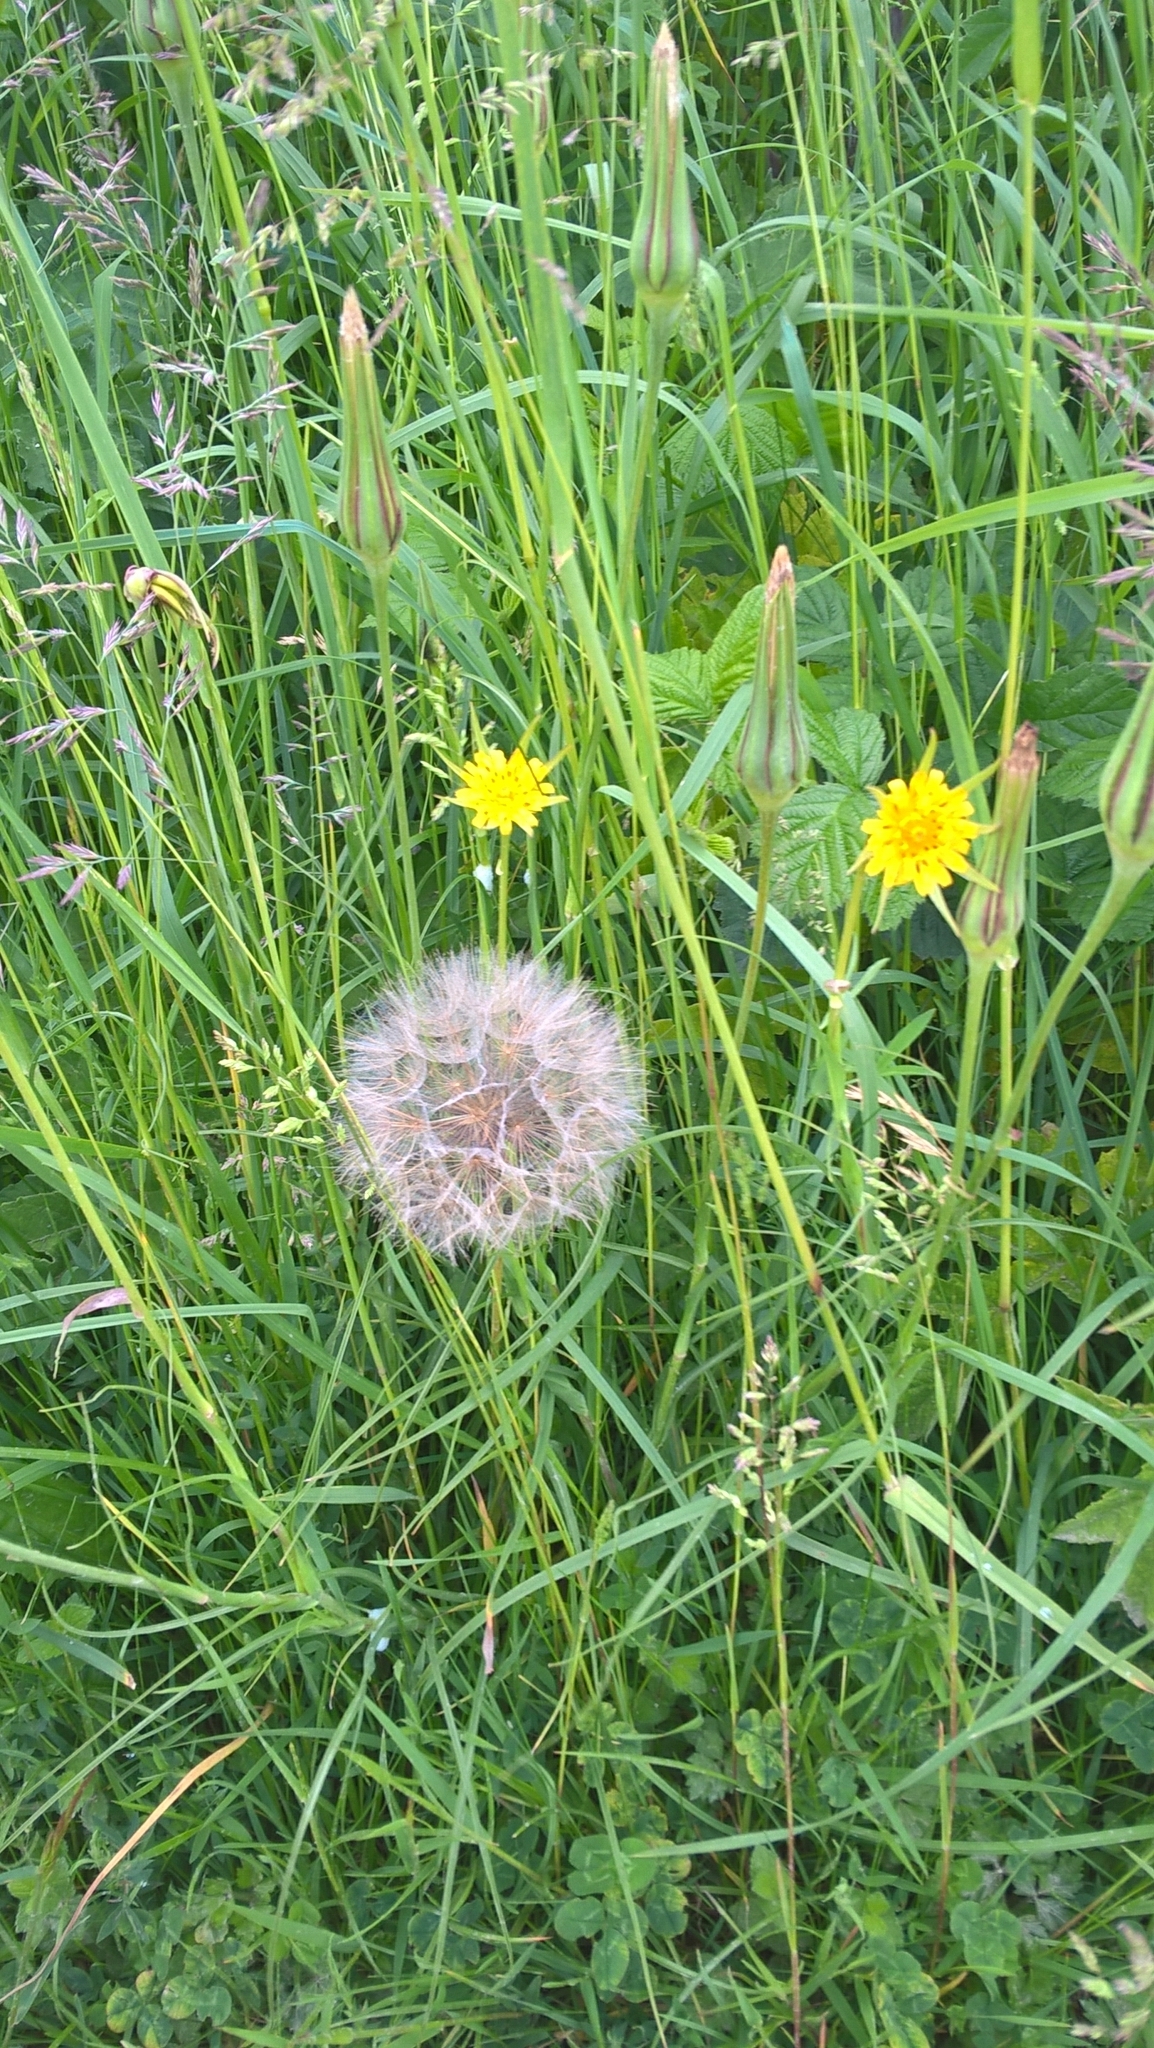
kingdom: Plantae
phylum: Tracheophyta
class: Magnoliopsida
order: Asterales
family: Asteraceae
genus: Tragopogon
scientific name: Tragopogon minor
